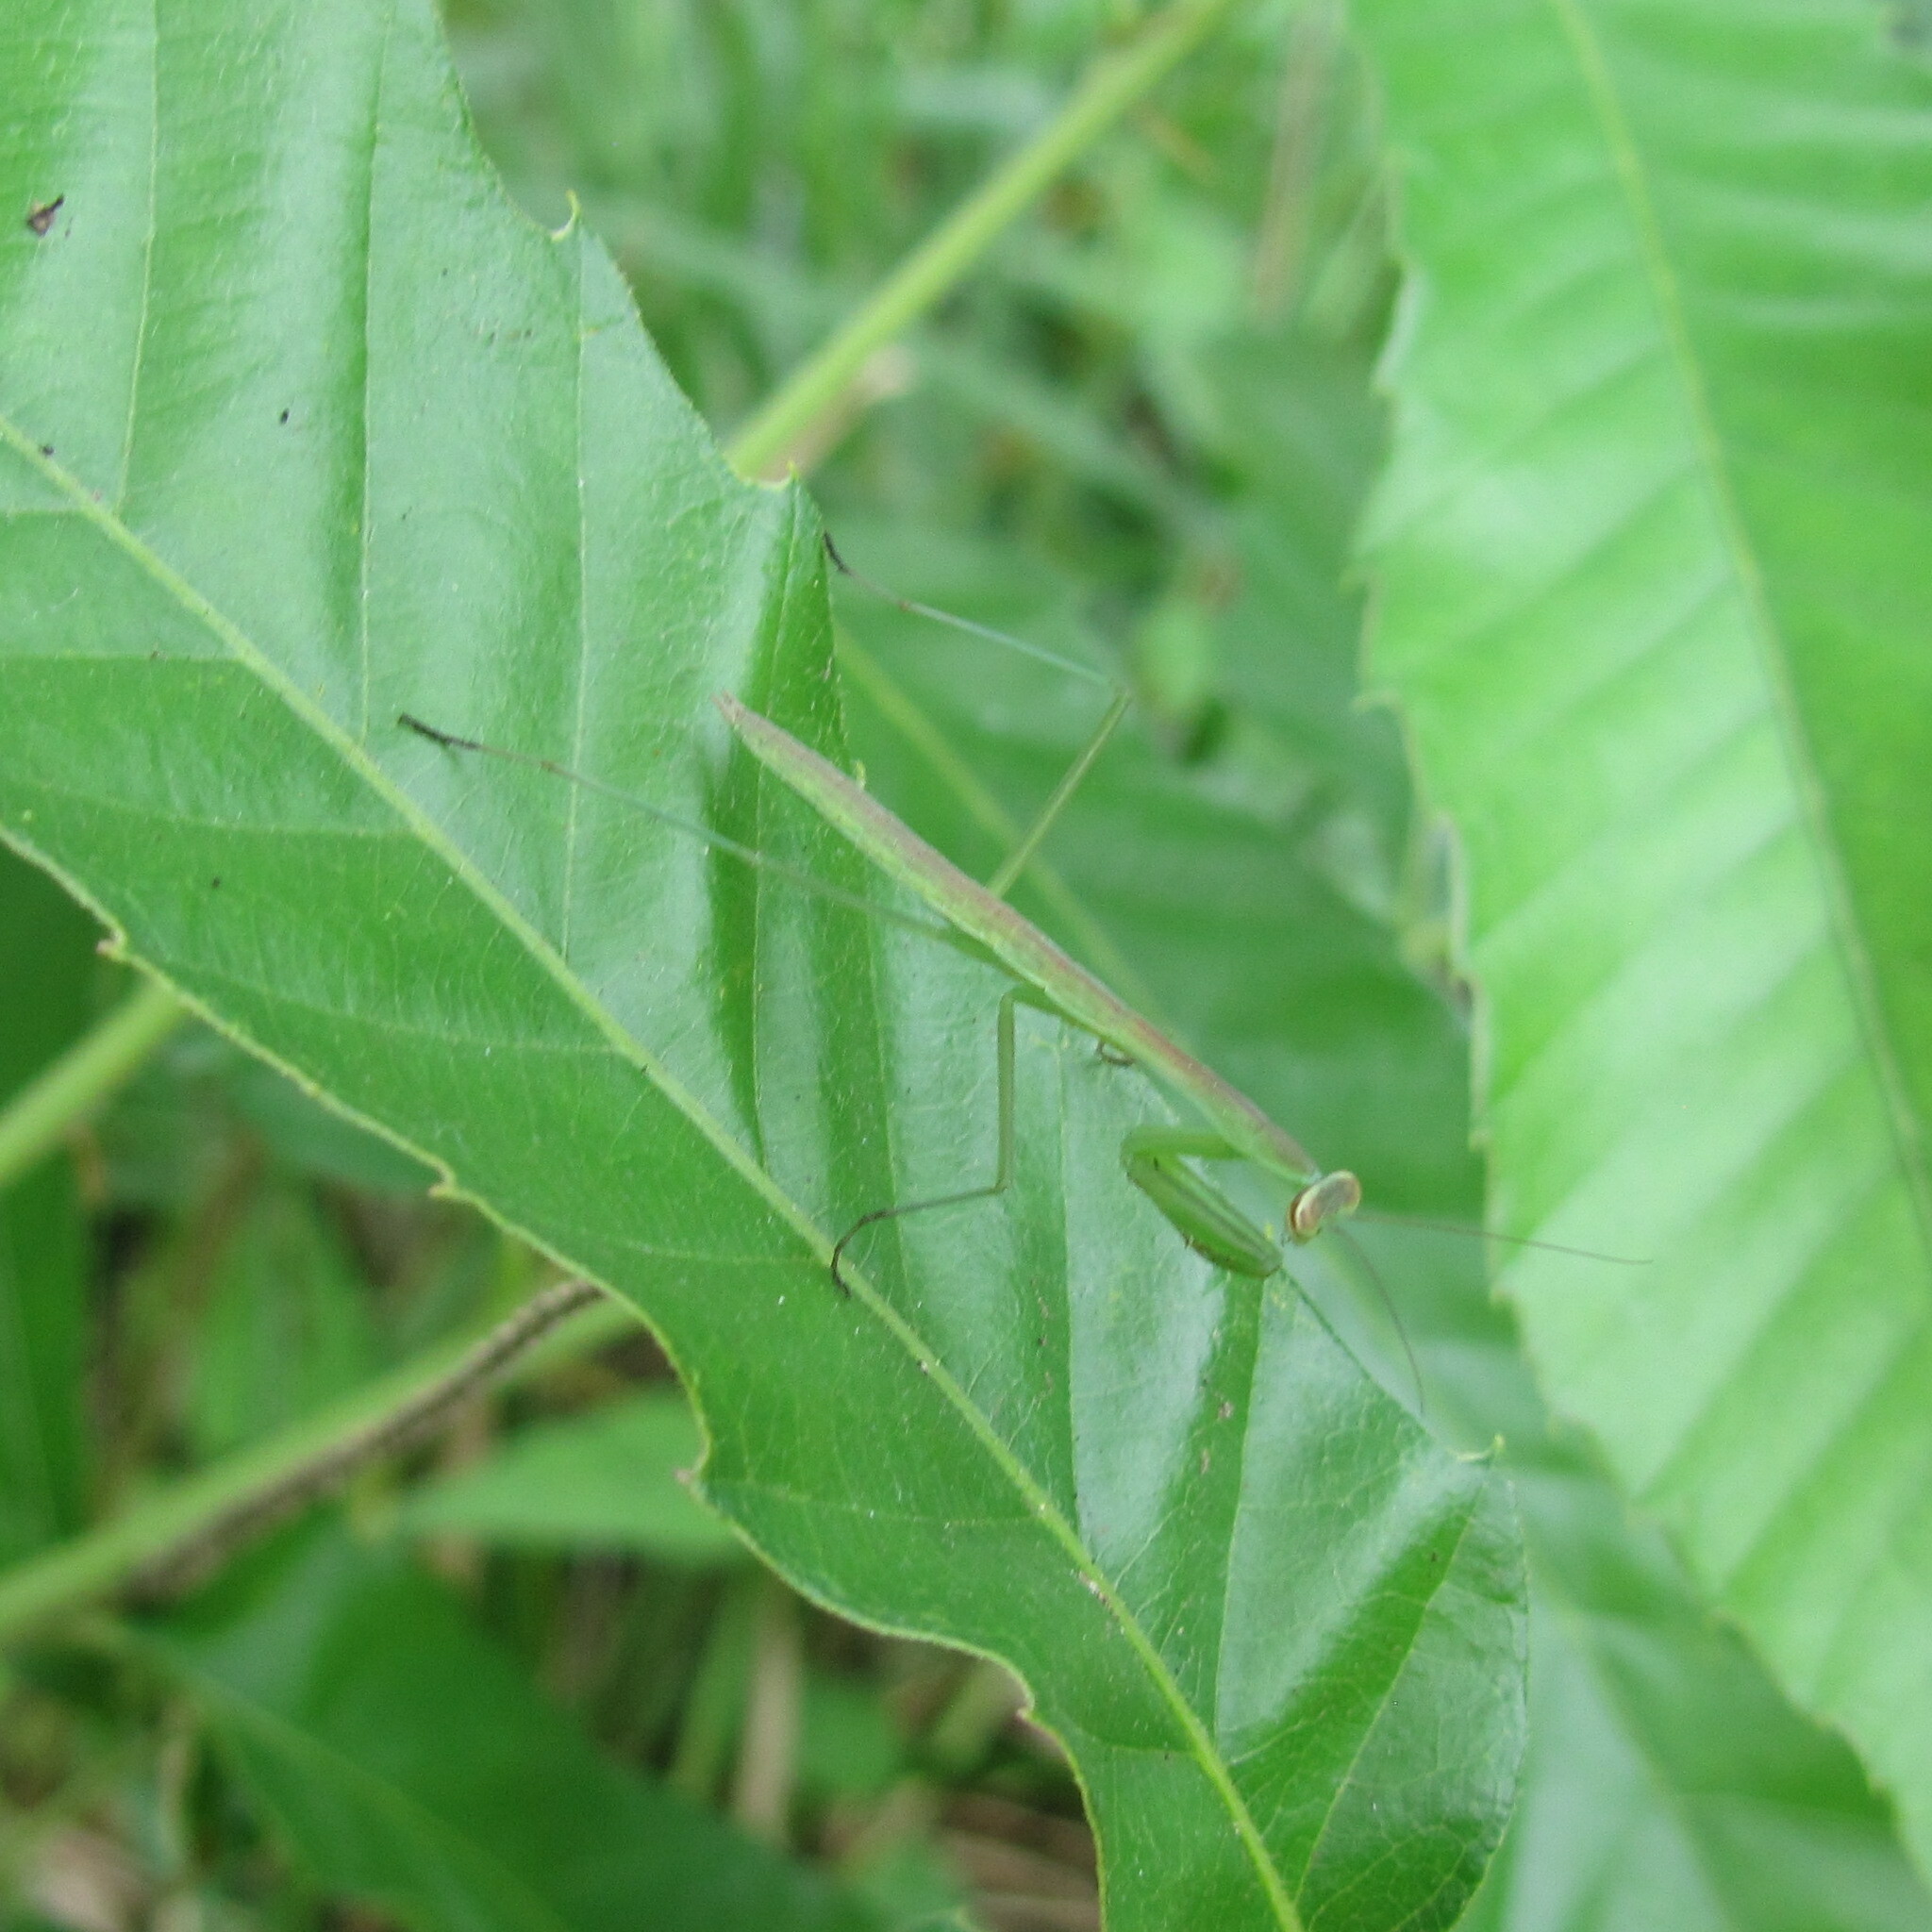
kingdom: Animalia
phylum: Arthropoda
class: Insecta
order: Mantodea
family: Mantidae
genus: Tenodera
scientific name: Tenodera sinensis
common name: Chinese mantis
